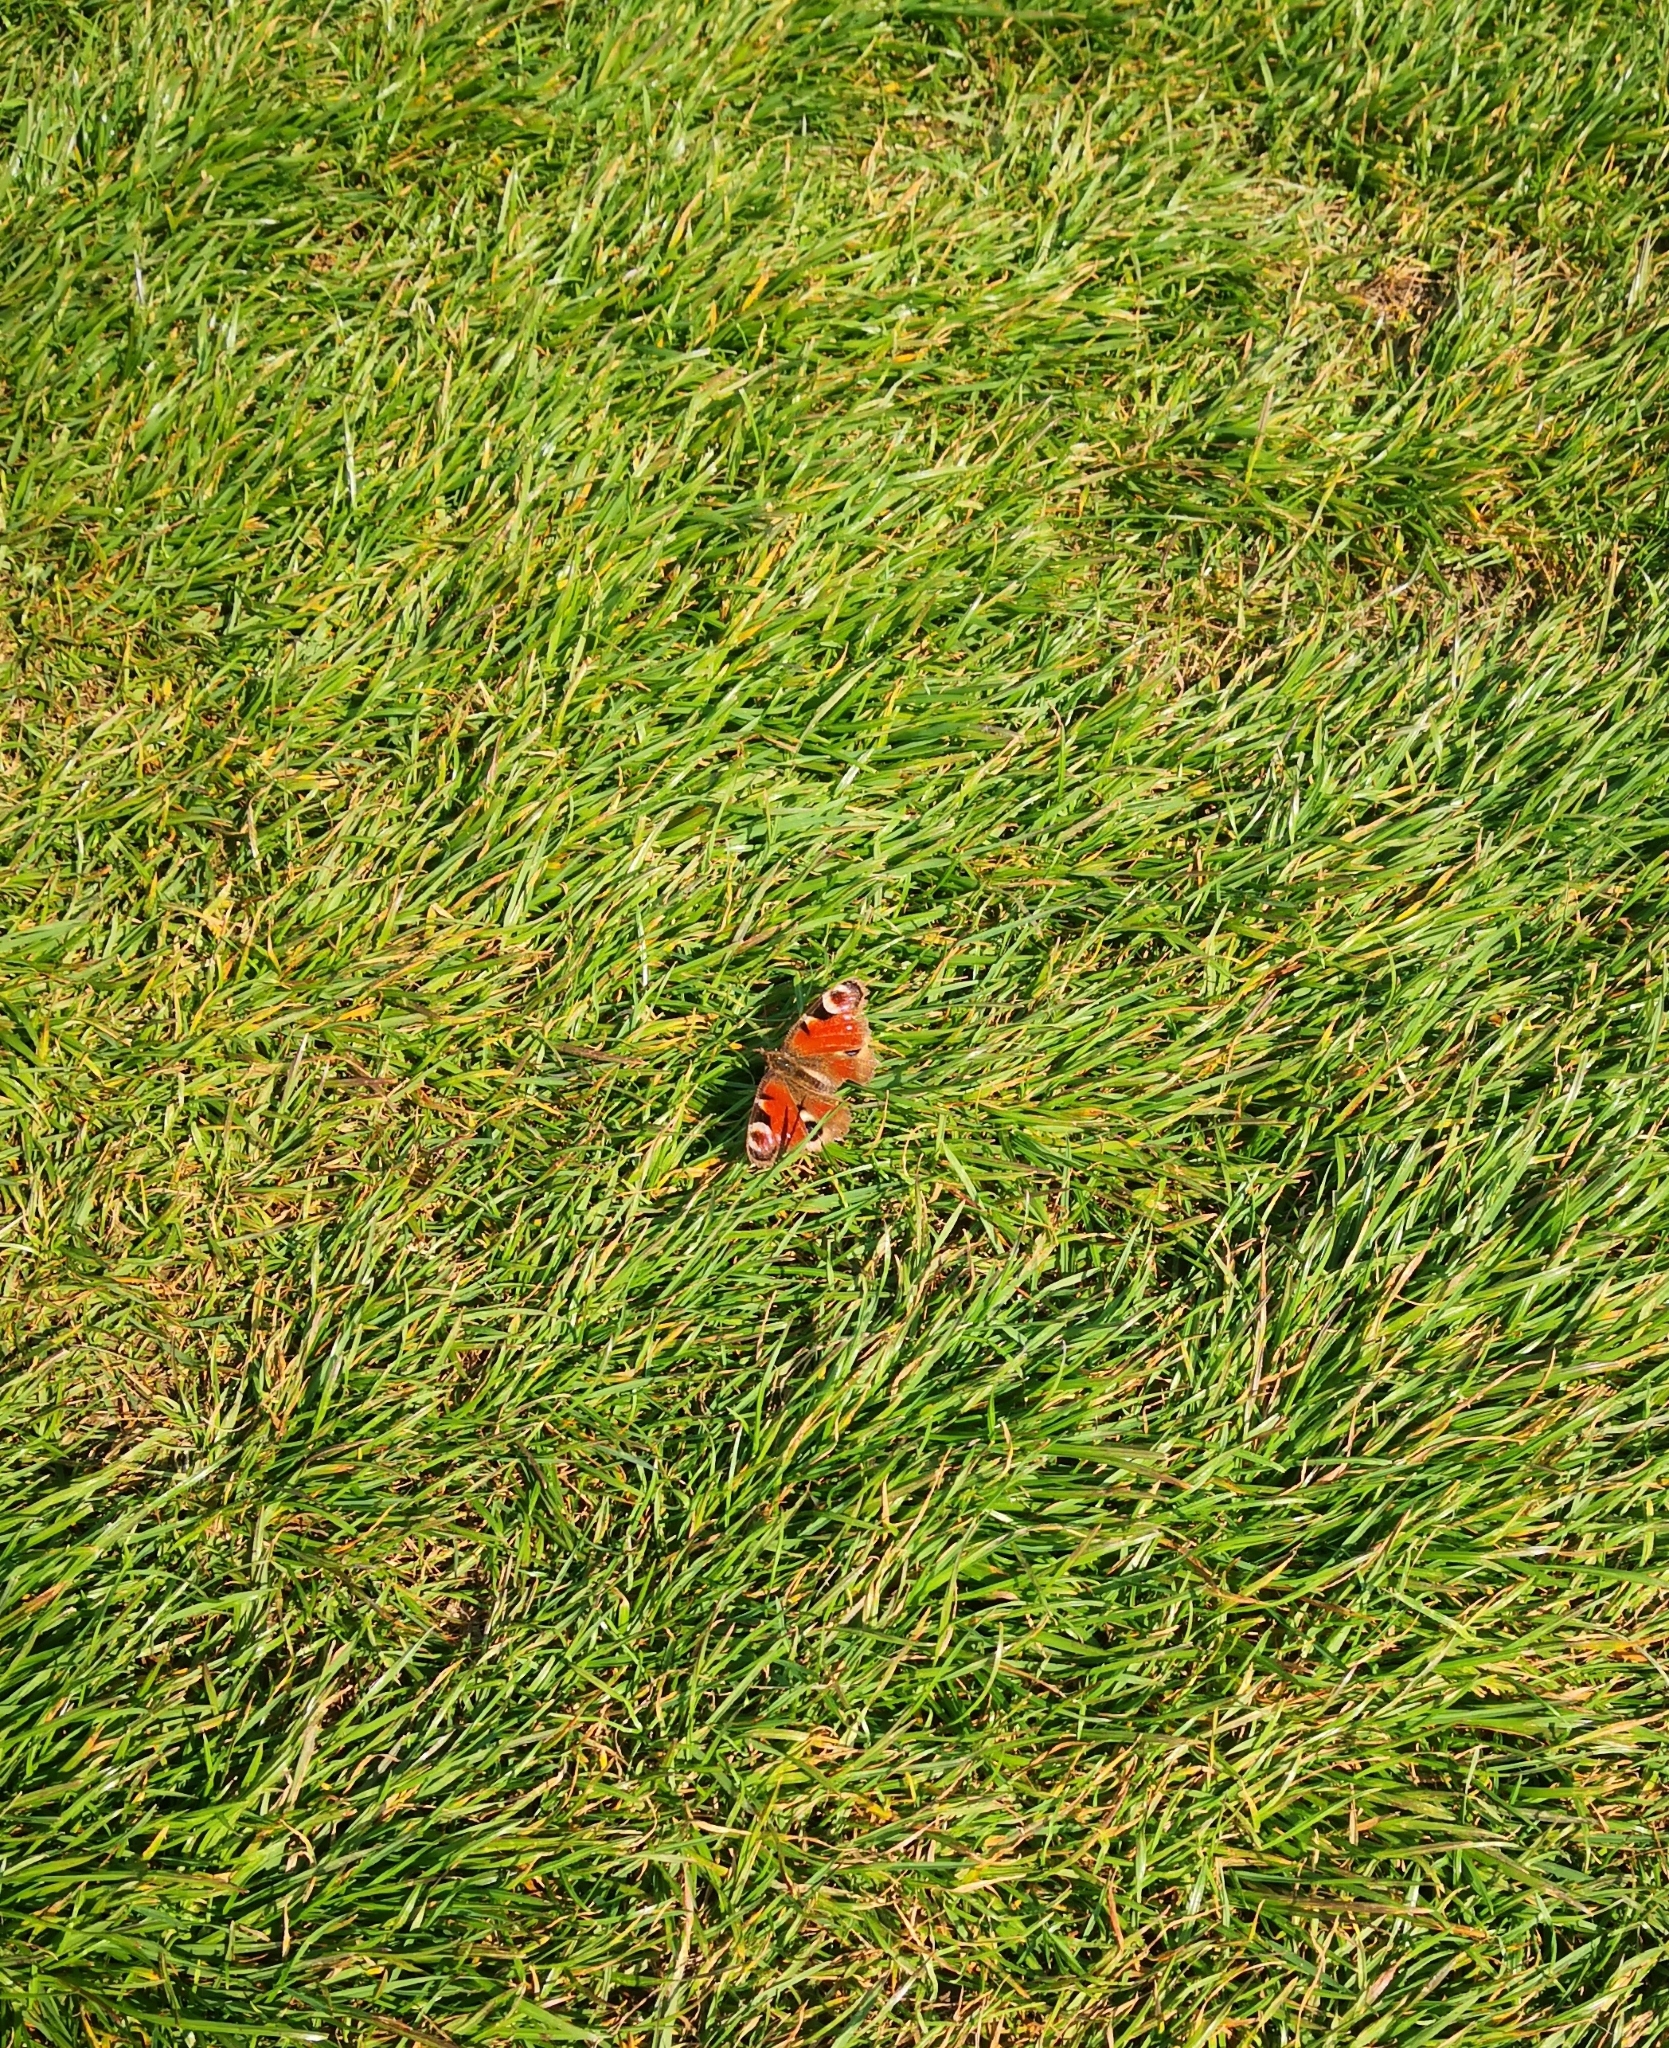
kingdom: Animalia
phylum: Arthropoda
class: Insecta
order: Lepidoptera
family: Nymphalidae
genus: Aglais
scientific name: Aglais io
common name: Peacock
